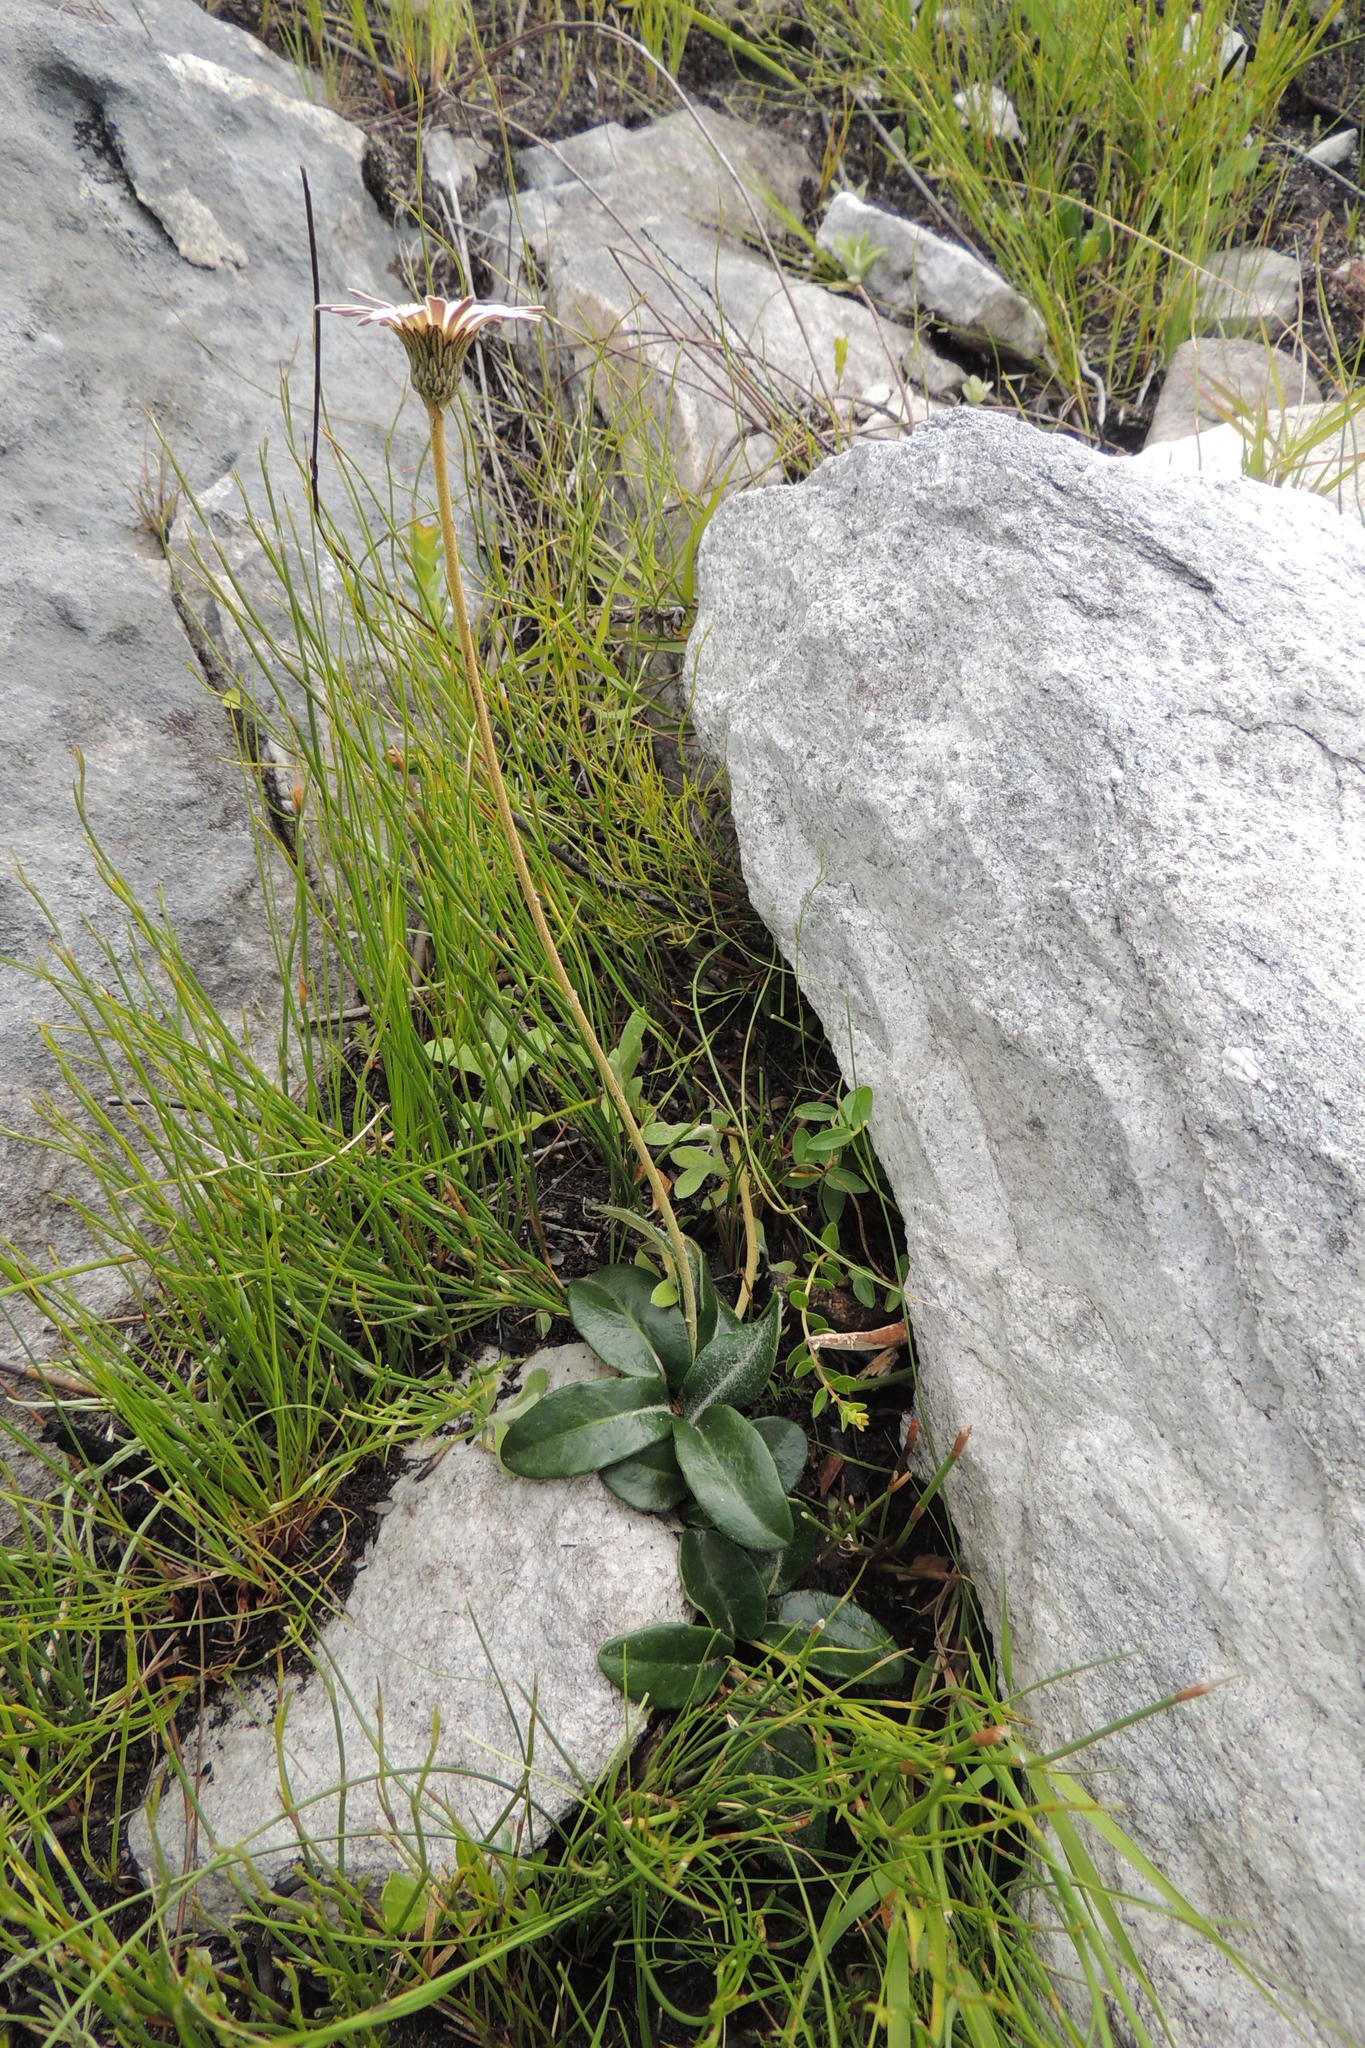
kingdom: Plantae
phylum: Tracheophyta
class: Magnoliopsida
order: Asterales
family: Asteraceae
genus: Gerbera
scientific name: Gerbera tomentosa
